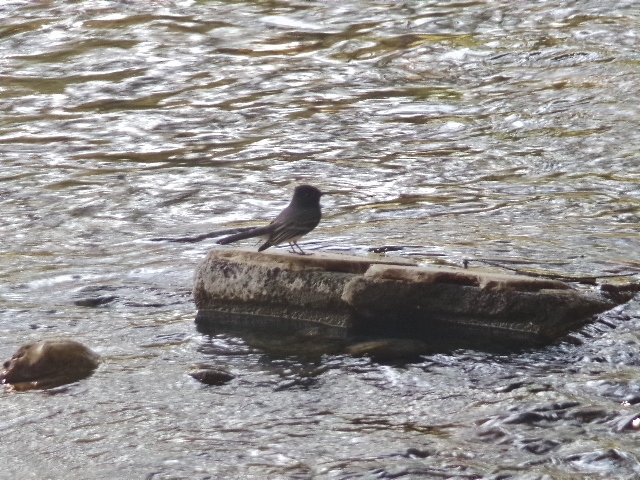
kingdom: Animalia
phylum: Chordata
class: Aves
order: Passeriformes
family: Tyrannidae
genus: Sayornis
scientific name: Sayornis nigricans
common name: Black phoebe
